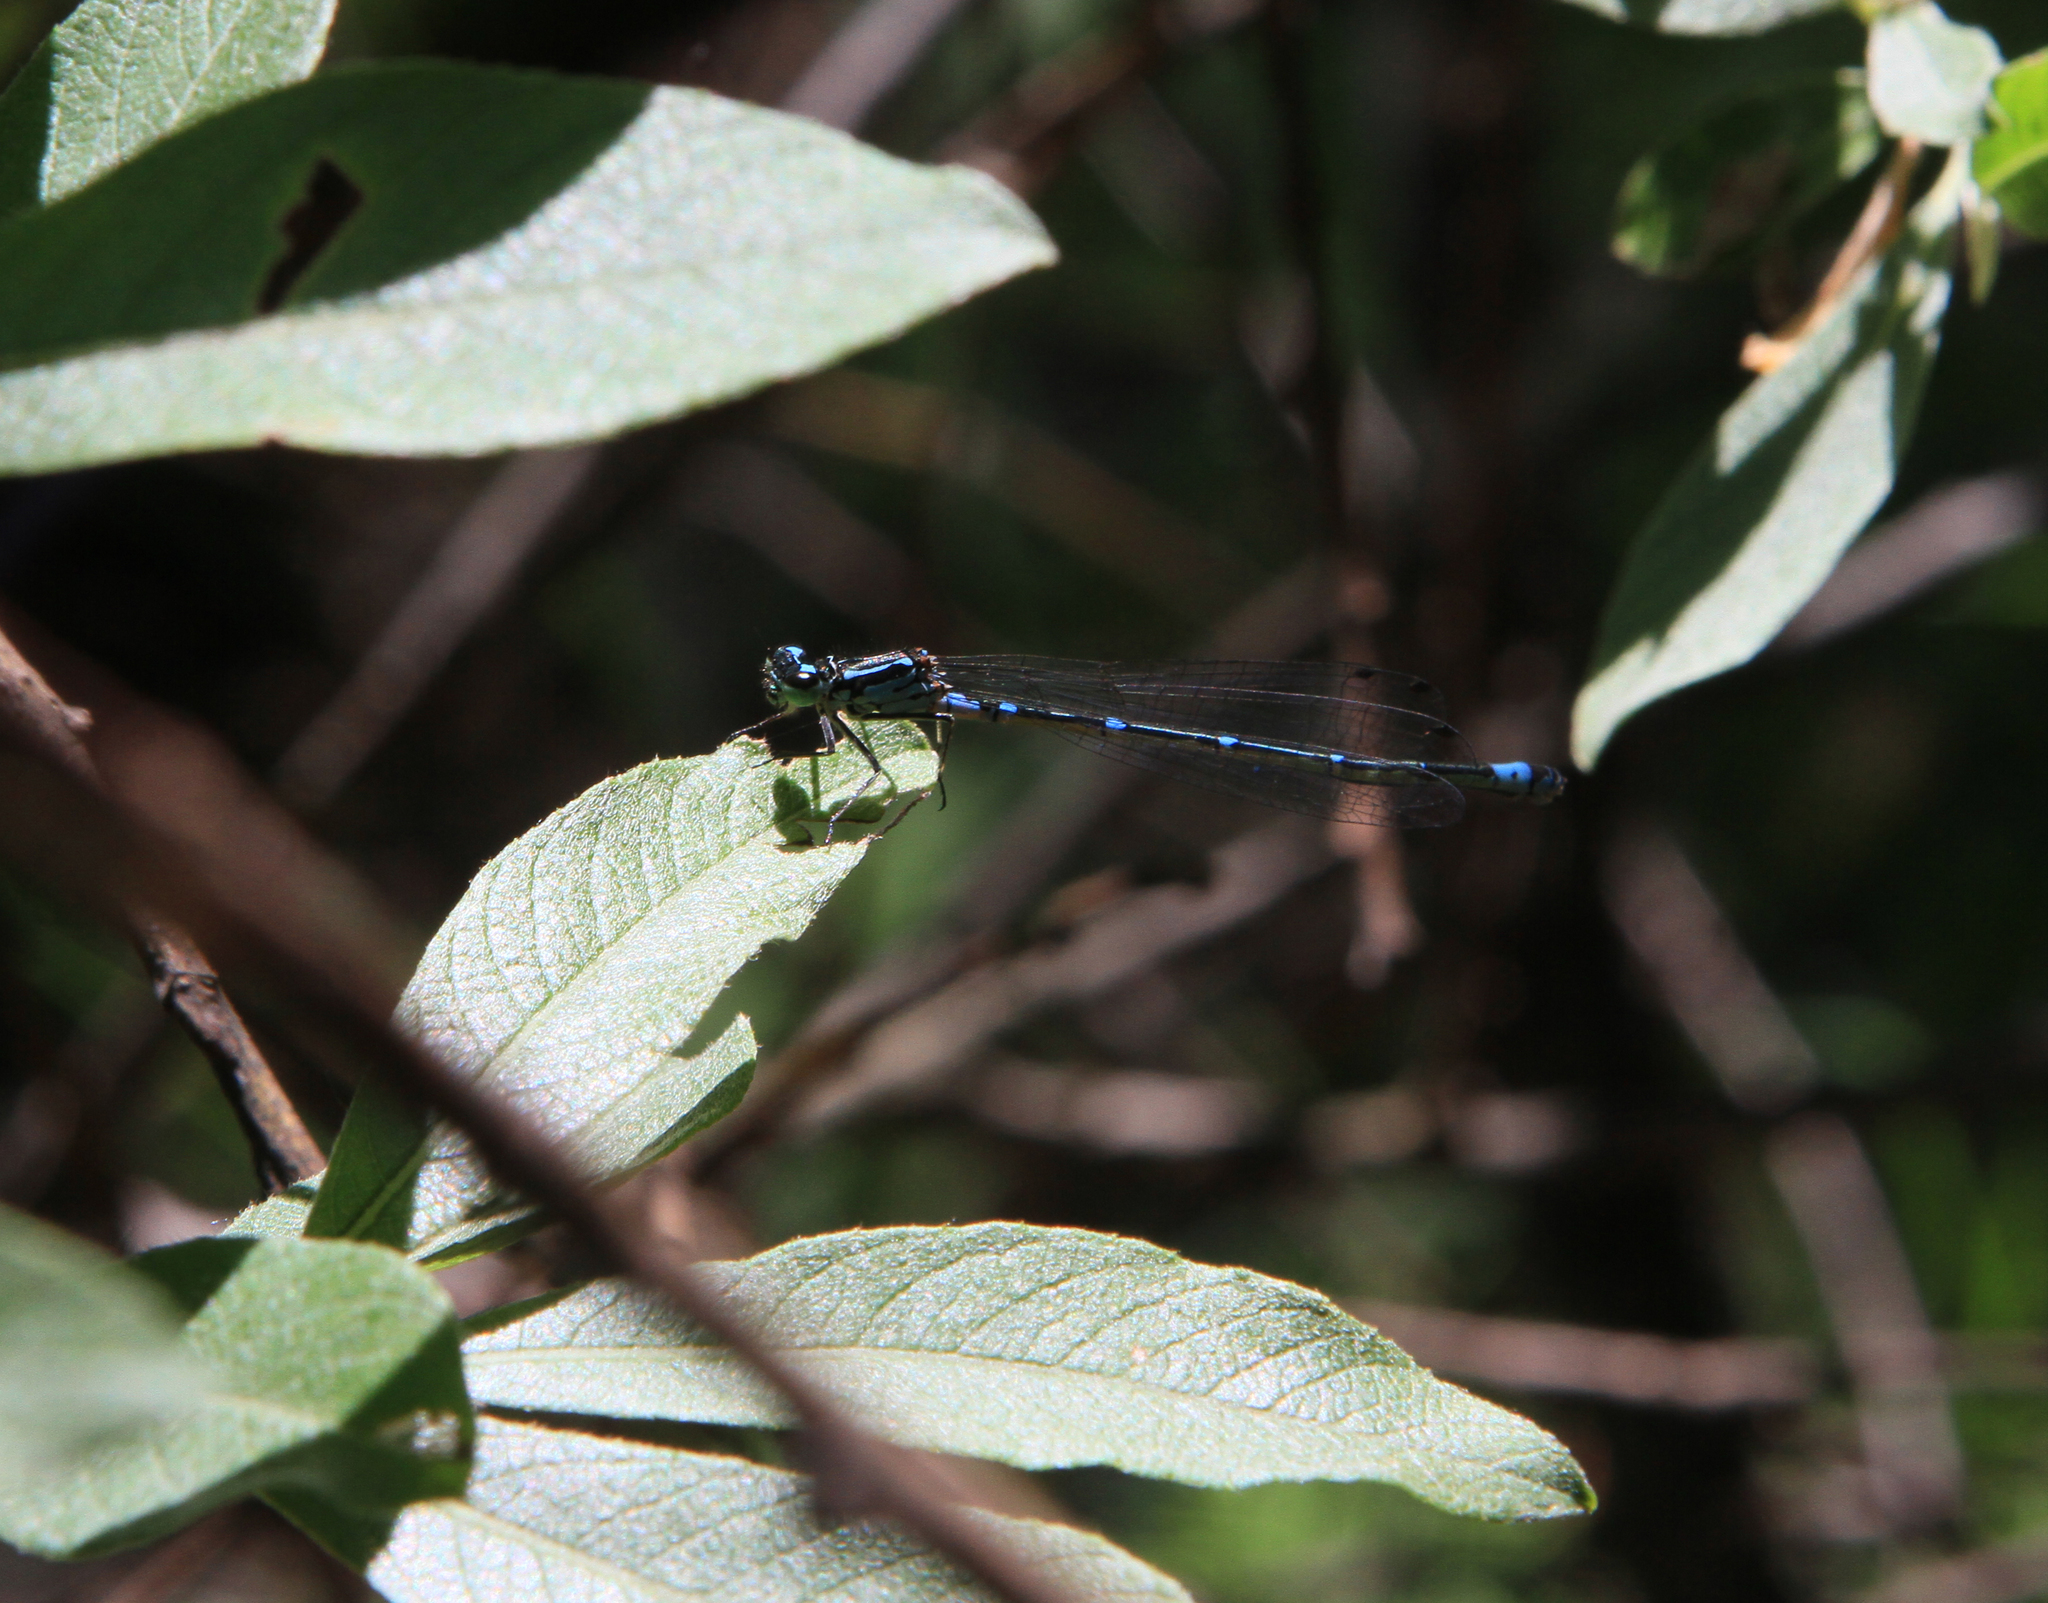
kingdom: Animalia
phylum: Arthropoda
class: Insecta
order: Odonata
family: Coenagrionidae
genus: Coenagrion
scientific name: Coenagrion pulchellum
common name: Variable bluet
